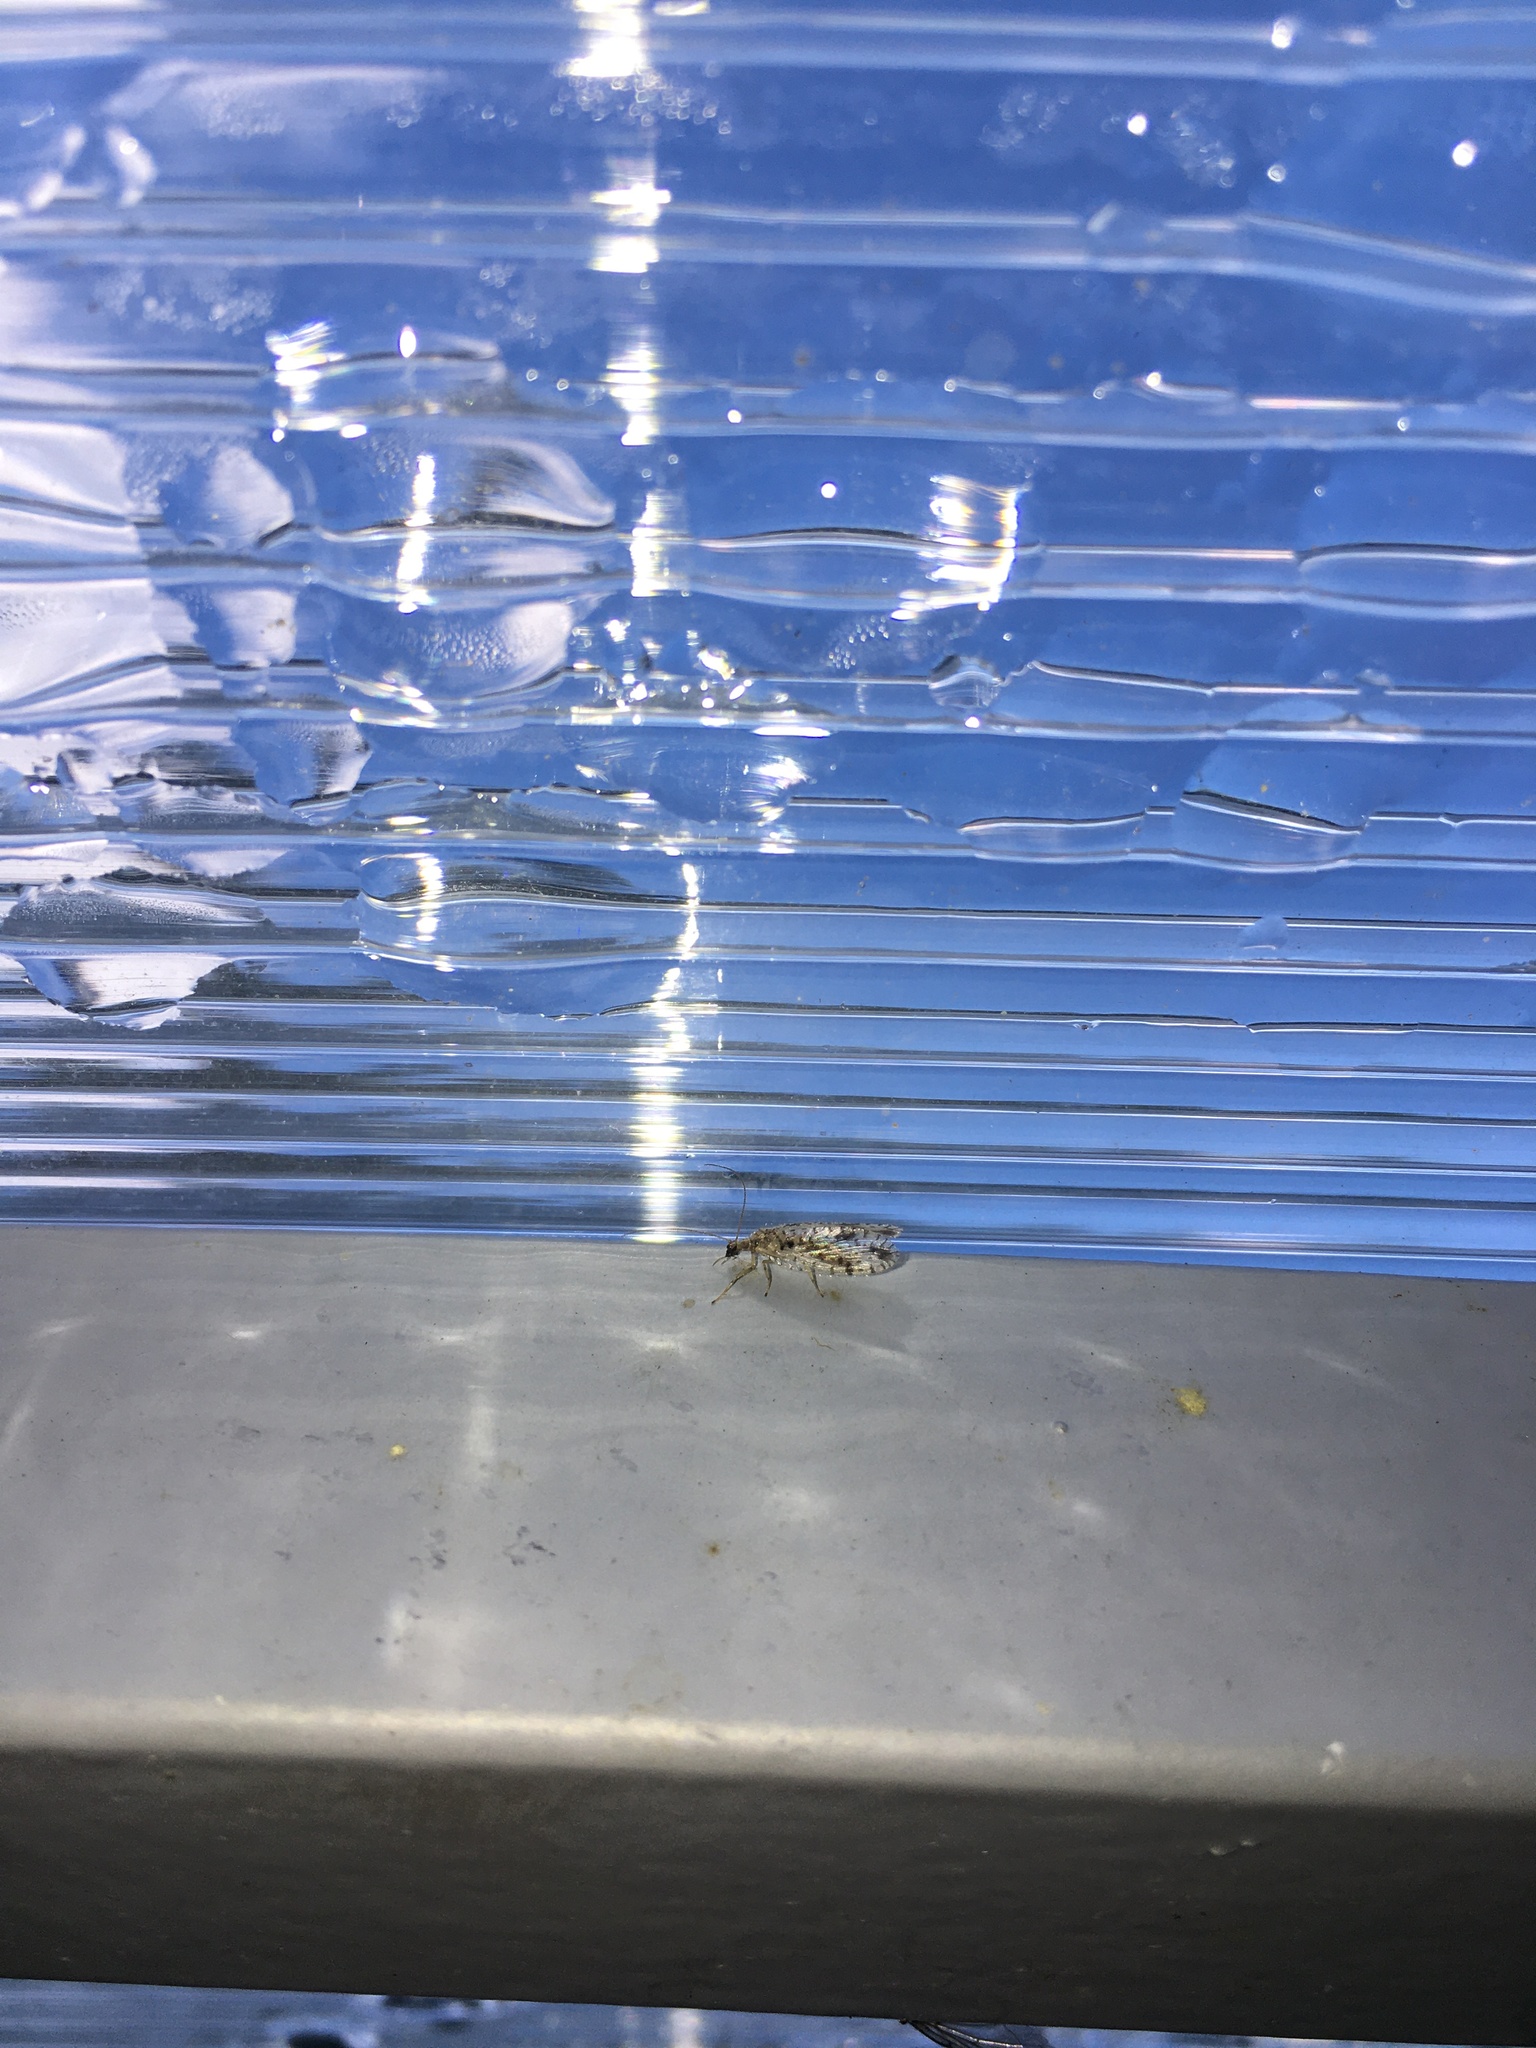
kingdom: Animalia
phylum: Arthropoda
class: Insecta
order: Neuroptera
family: Hemerobiidae
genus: Micromus
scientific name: Micromus variegatus
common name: Brown lacewing
